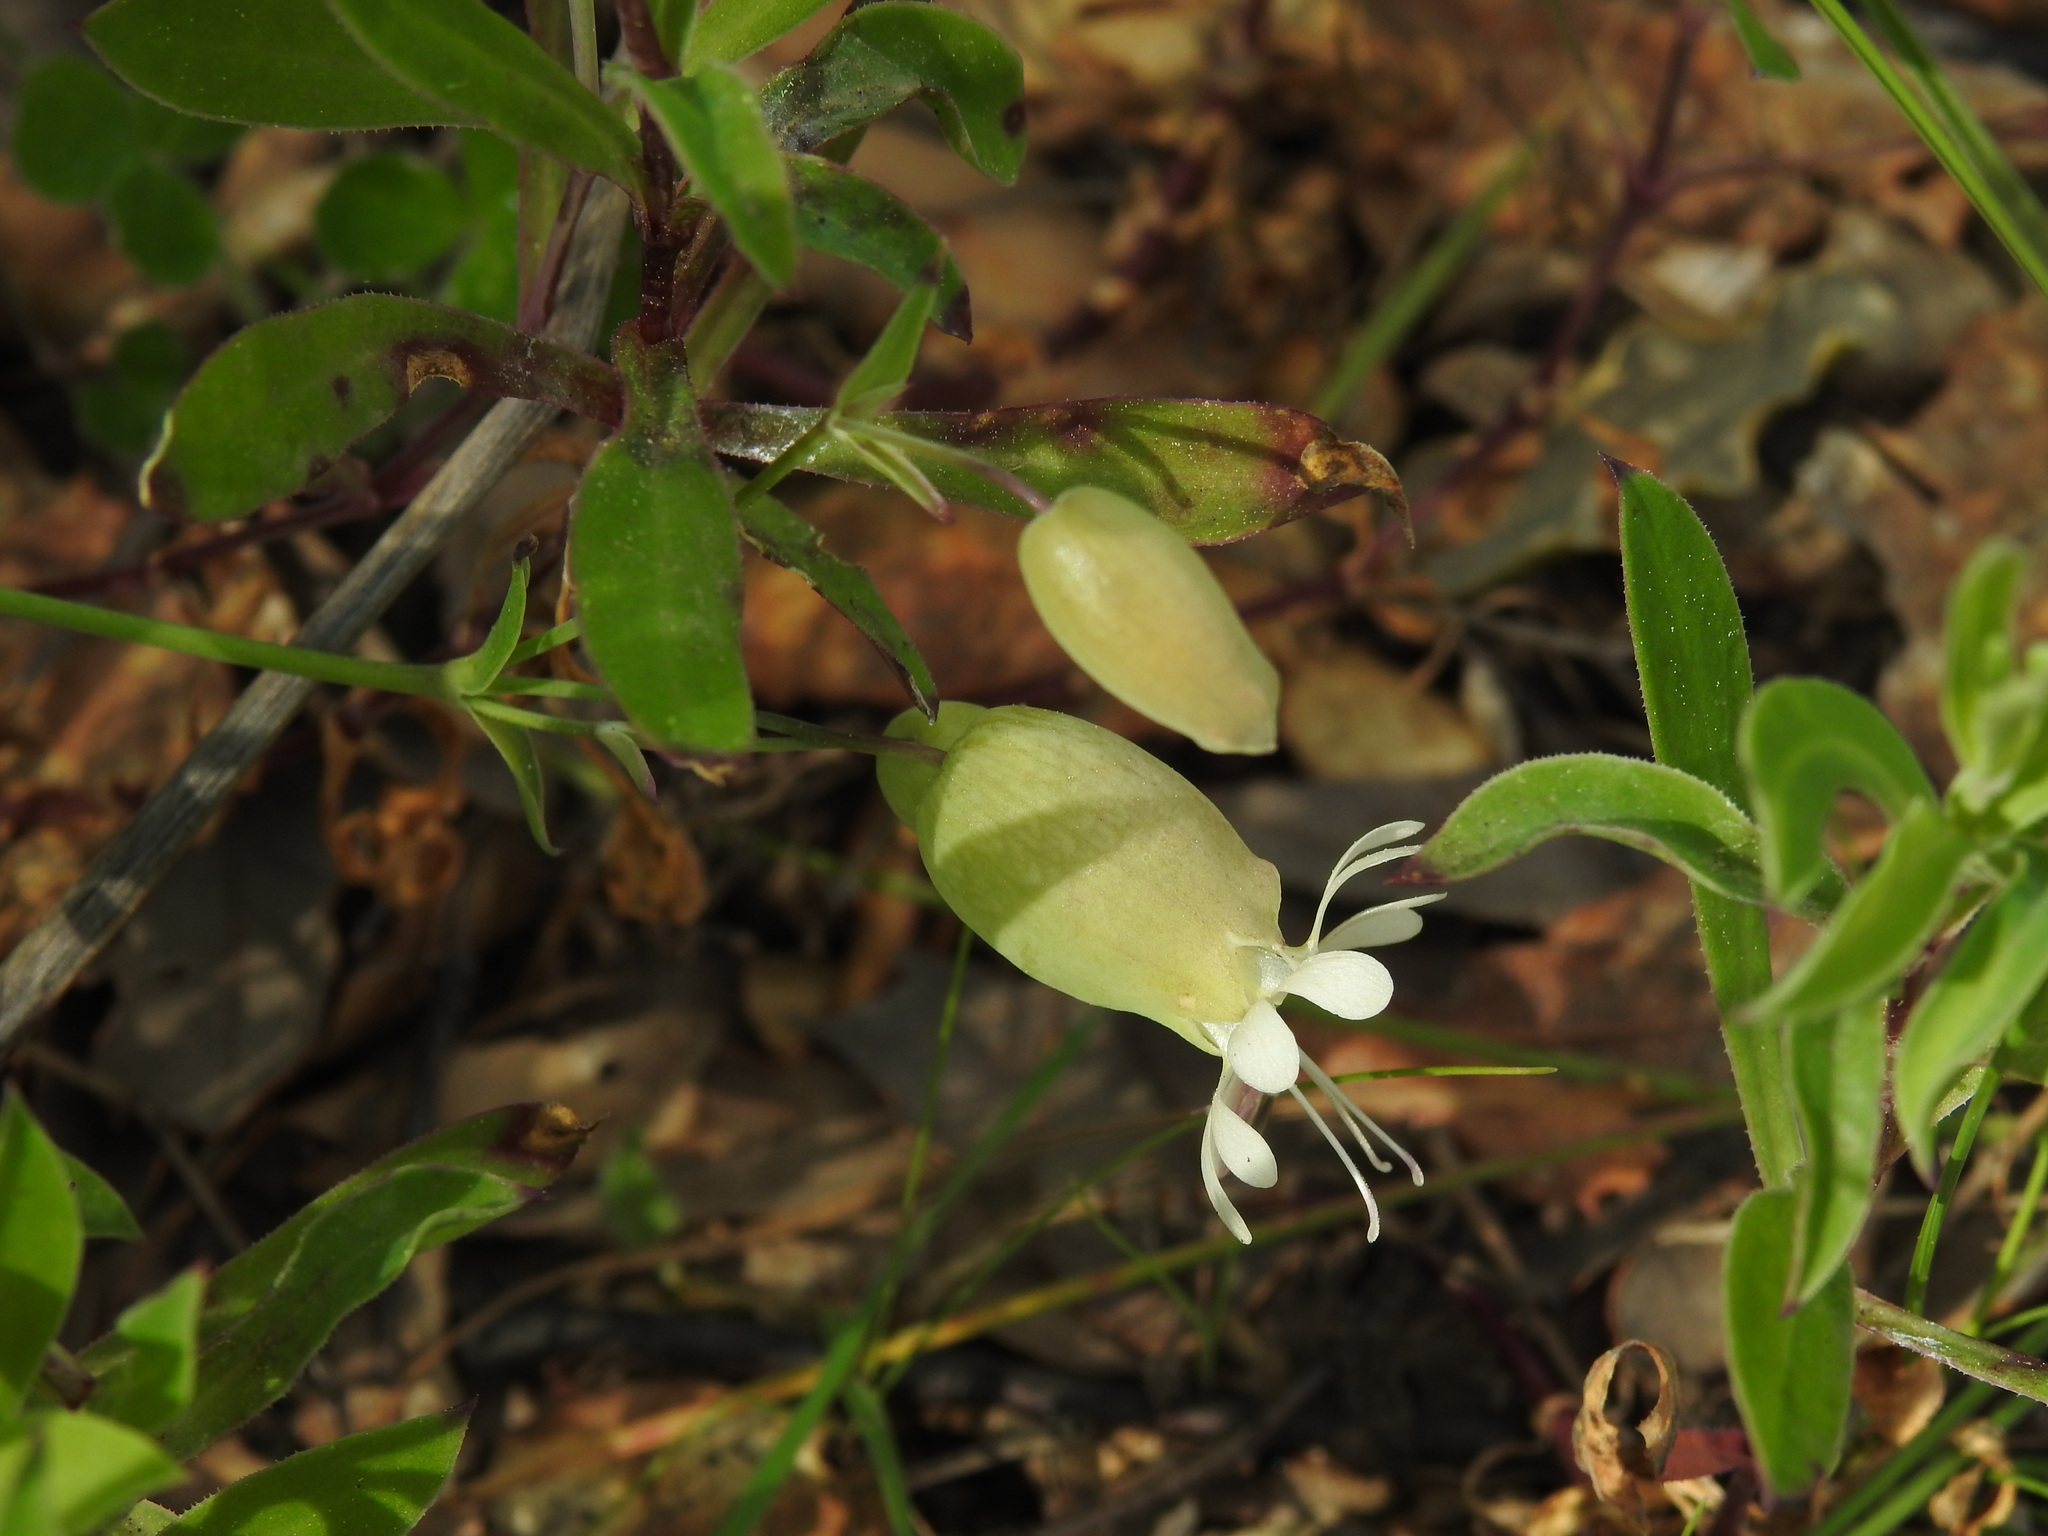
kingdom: Plantae
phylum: Tracheophyta
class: Magnoliopsida
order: Caryophyllales
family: Caryophyllaceae
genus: Silene
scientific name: Silene vulgaris
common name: Bladder campion
